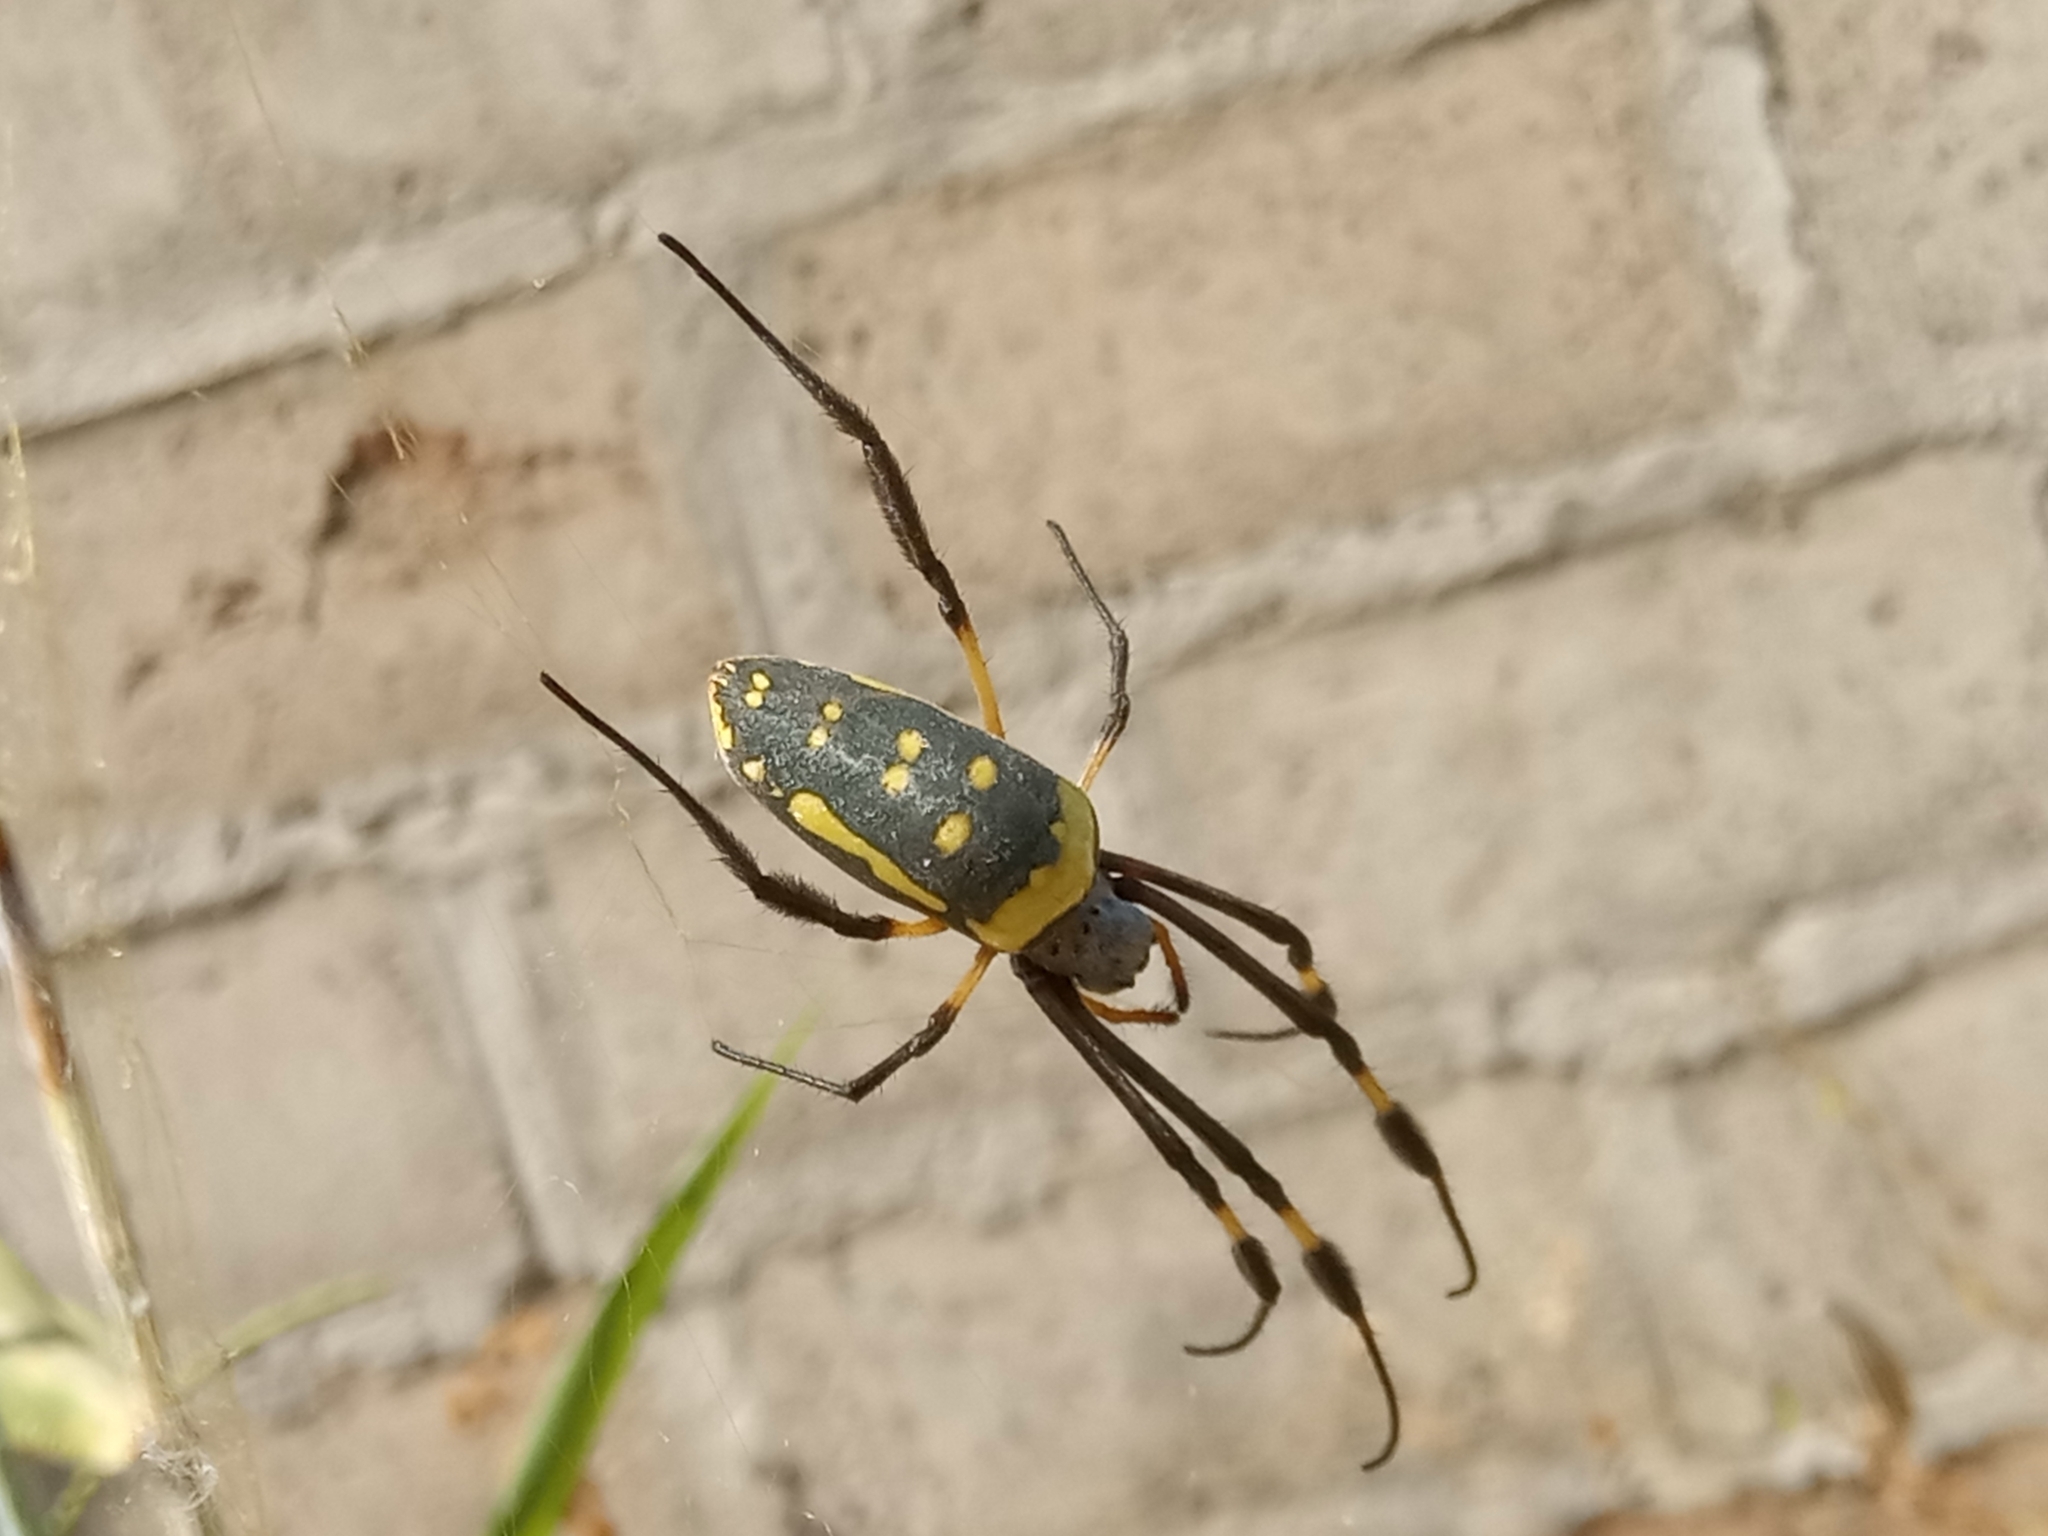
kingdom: Animalia
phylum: Arthropoda
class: Arachnida
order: Araneae
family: Araneidae
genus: Trichonephila
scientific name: Trichonephila senegalensis
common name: Banded golden orb weaver
